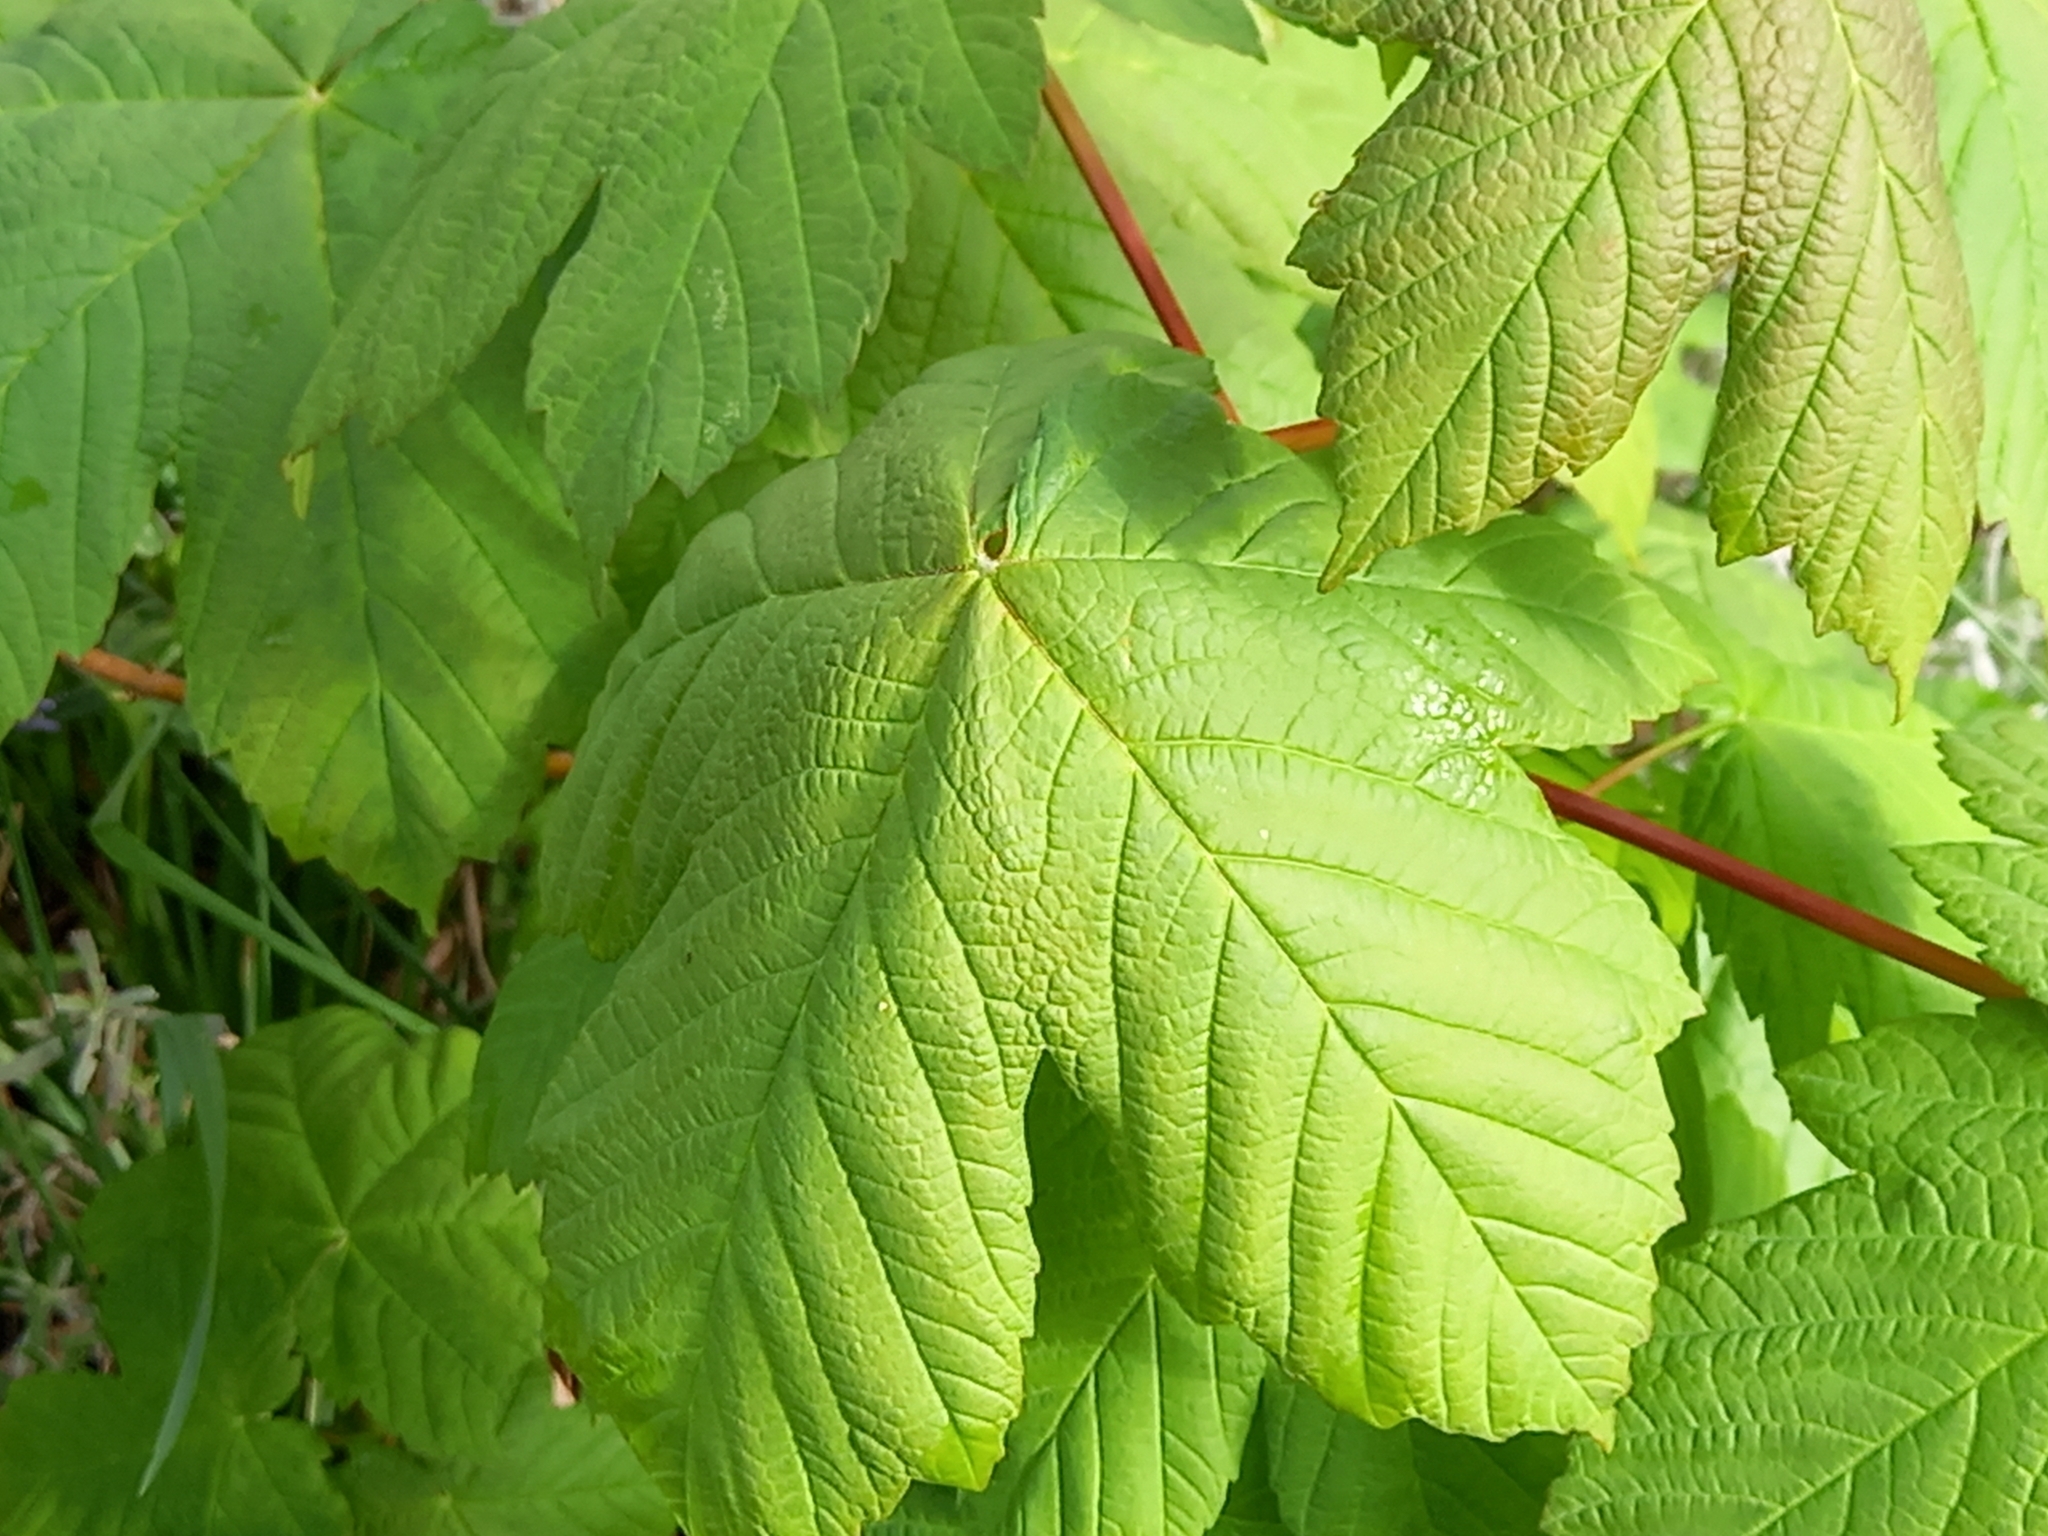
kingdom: Plantae
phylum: Tracheophyta
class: Magnoliopsida
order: Sapindales
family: Sapindaceae
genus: Acer
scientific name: Acer pseudoplatanus
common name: Sycamore
